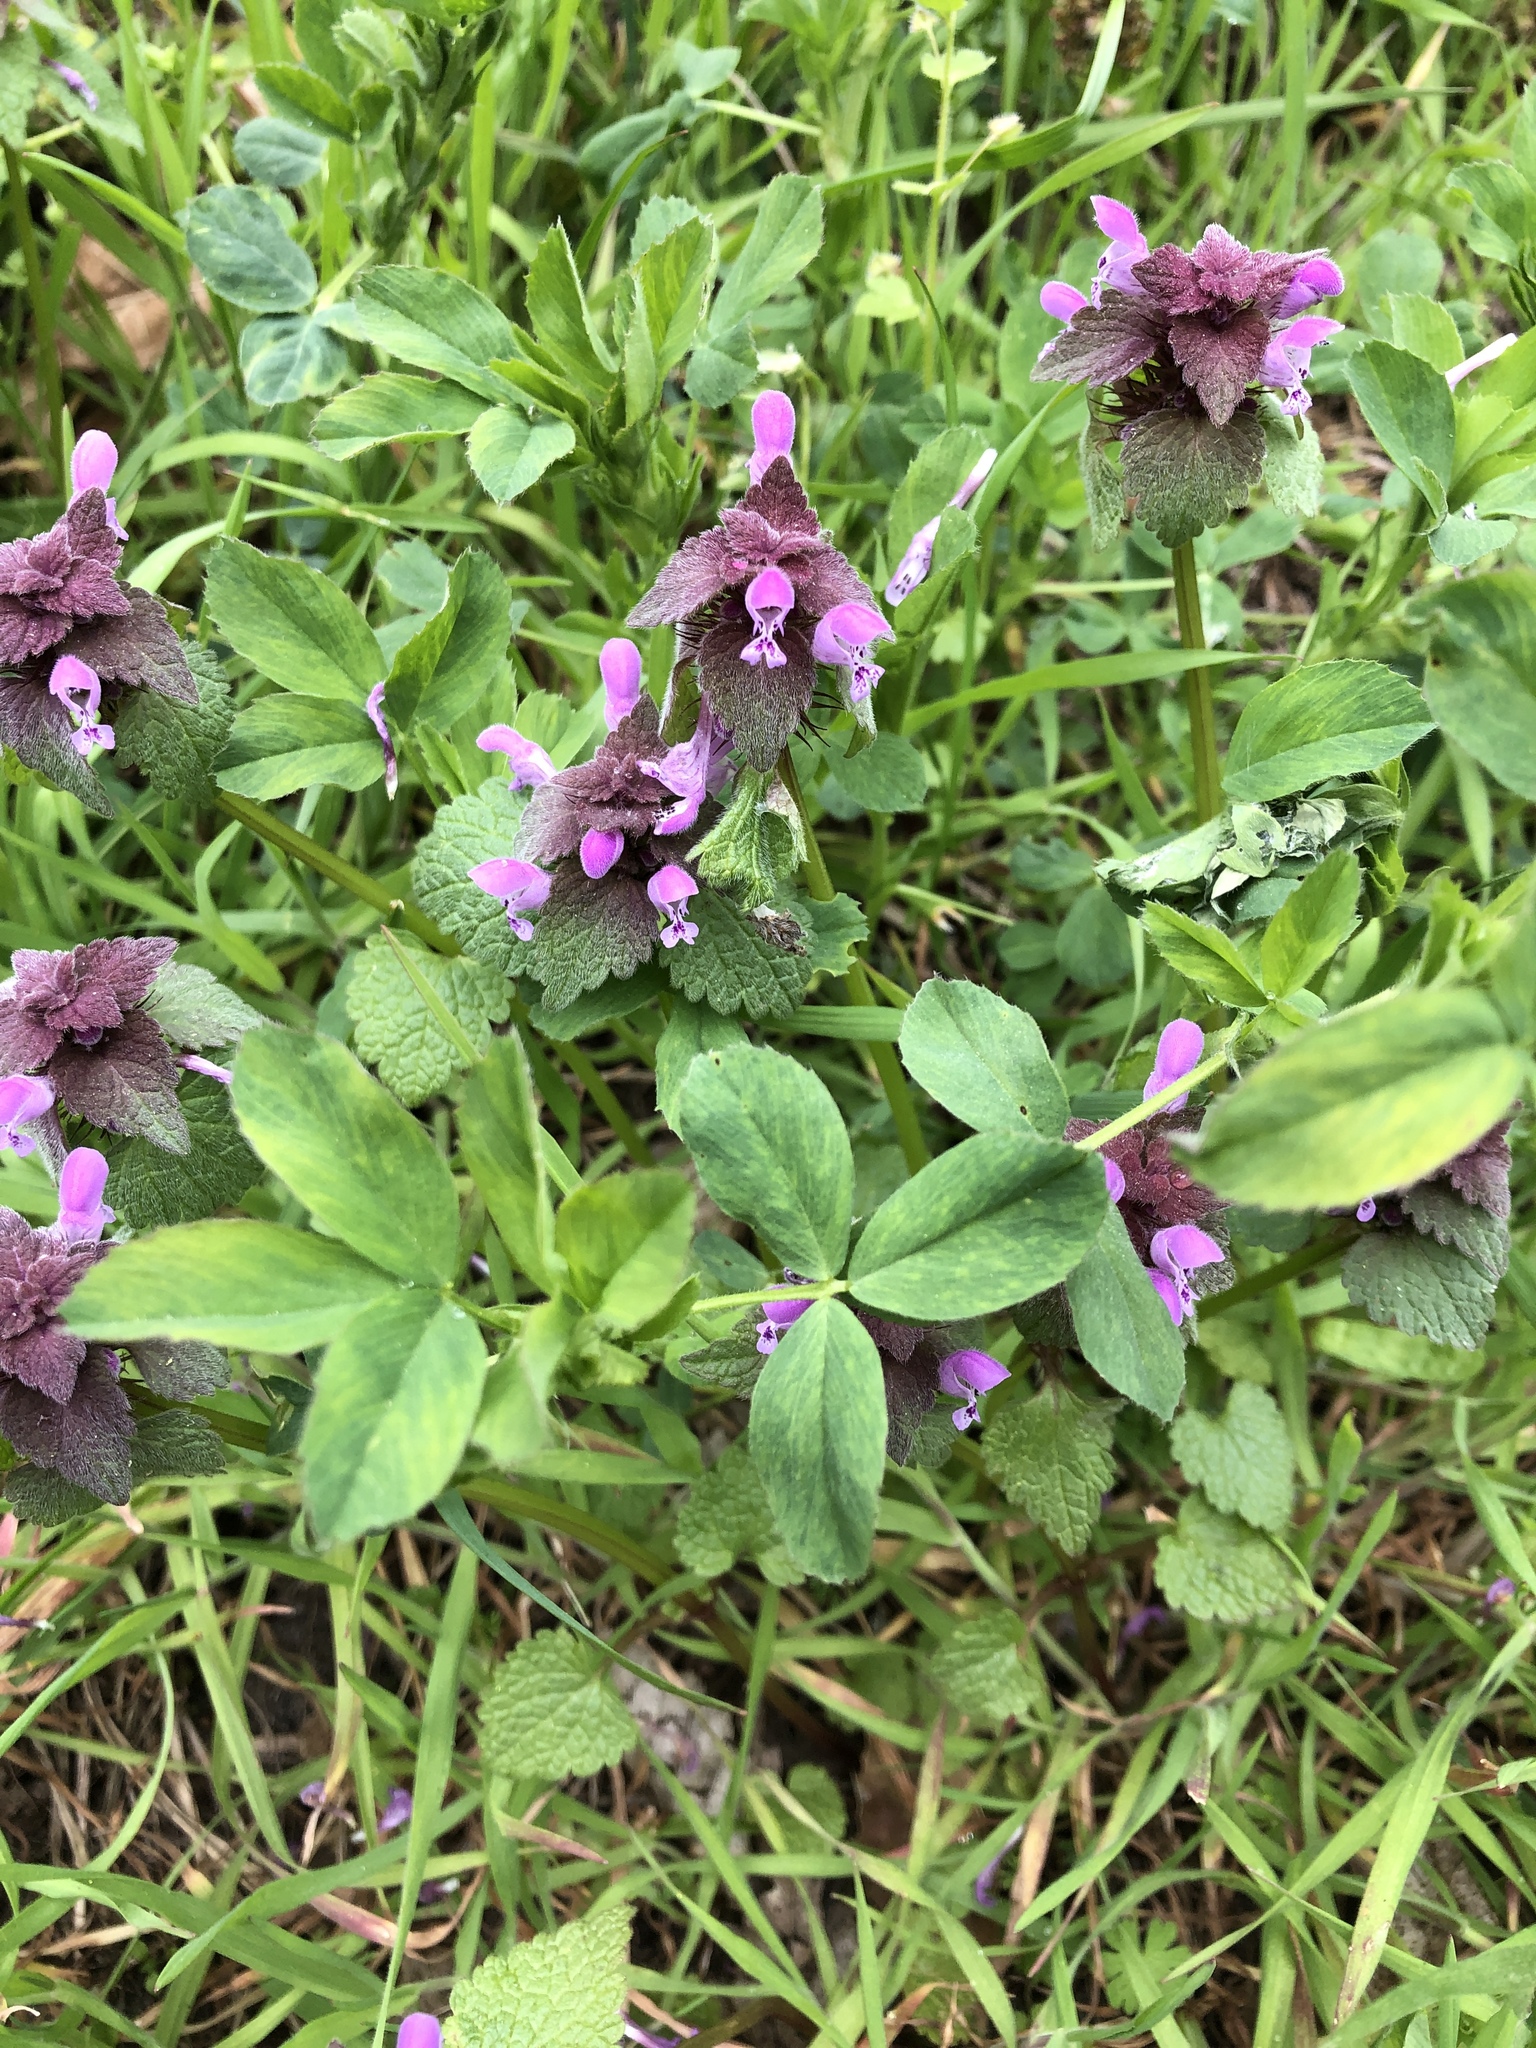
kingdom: Plantae
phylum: Tracheophyta
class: Magnoliopsida
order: Lamiales
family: Lamiaceae
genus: Lamium
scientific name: Lamium purpureum
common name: Red dead-nettle
